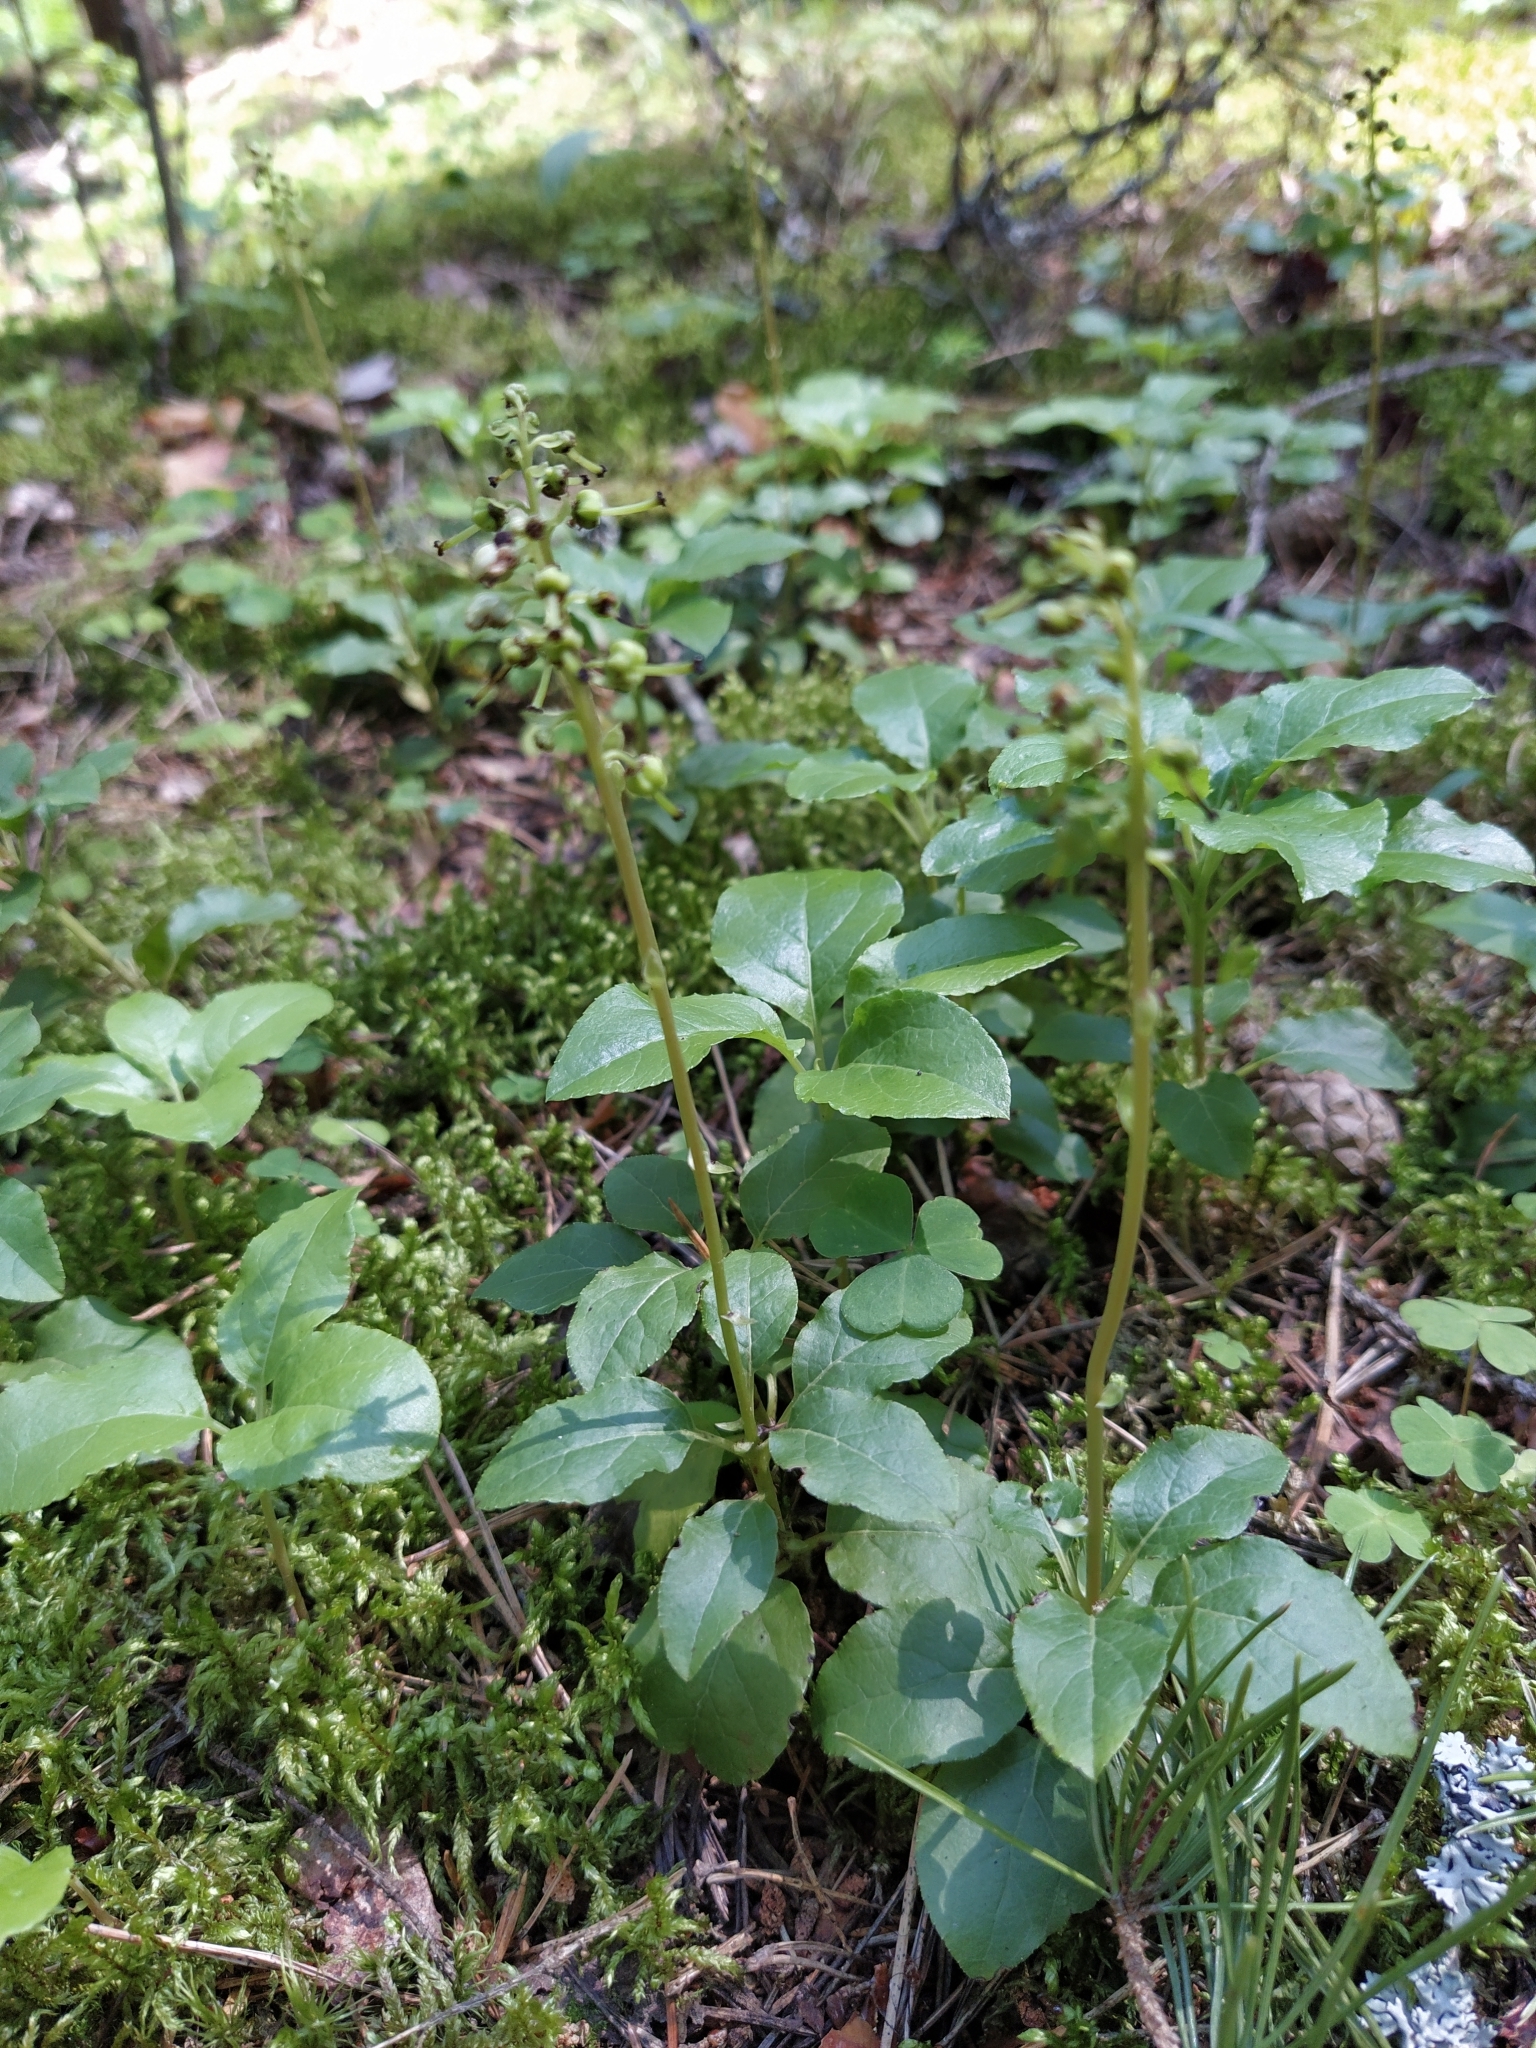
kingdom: Plantae
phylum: Tracheophyta
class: Magnoliopsida
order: Ericales
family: Ericaceae
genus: Orthilia
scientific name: Orthilia secunda
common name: One-sided orthilia
